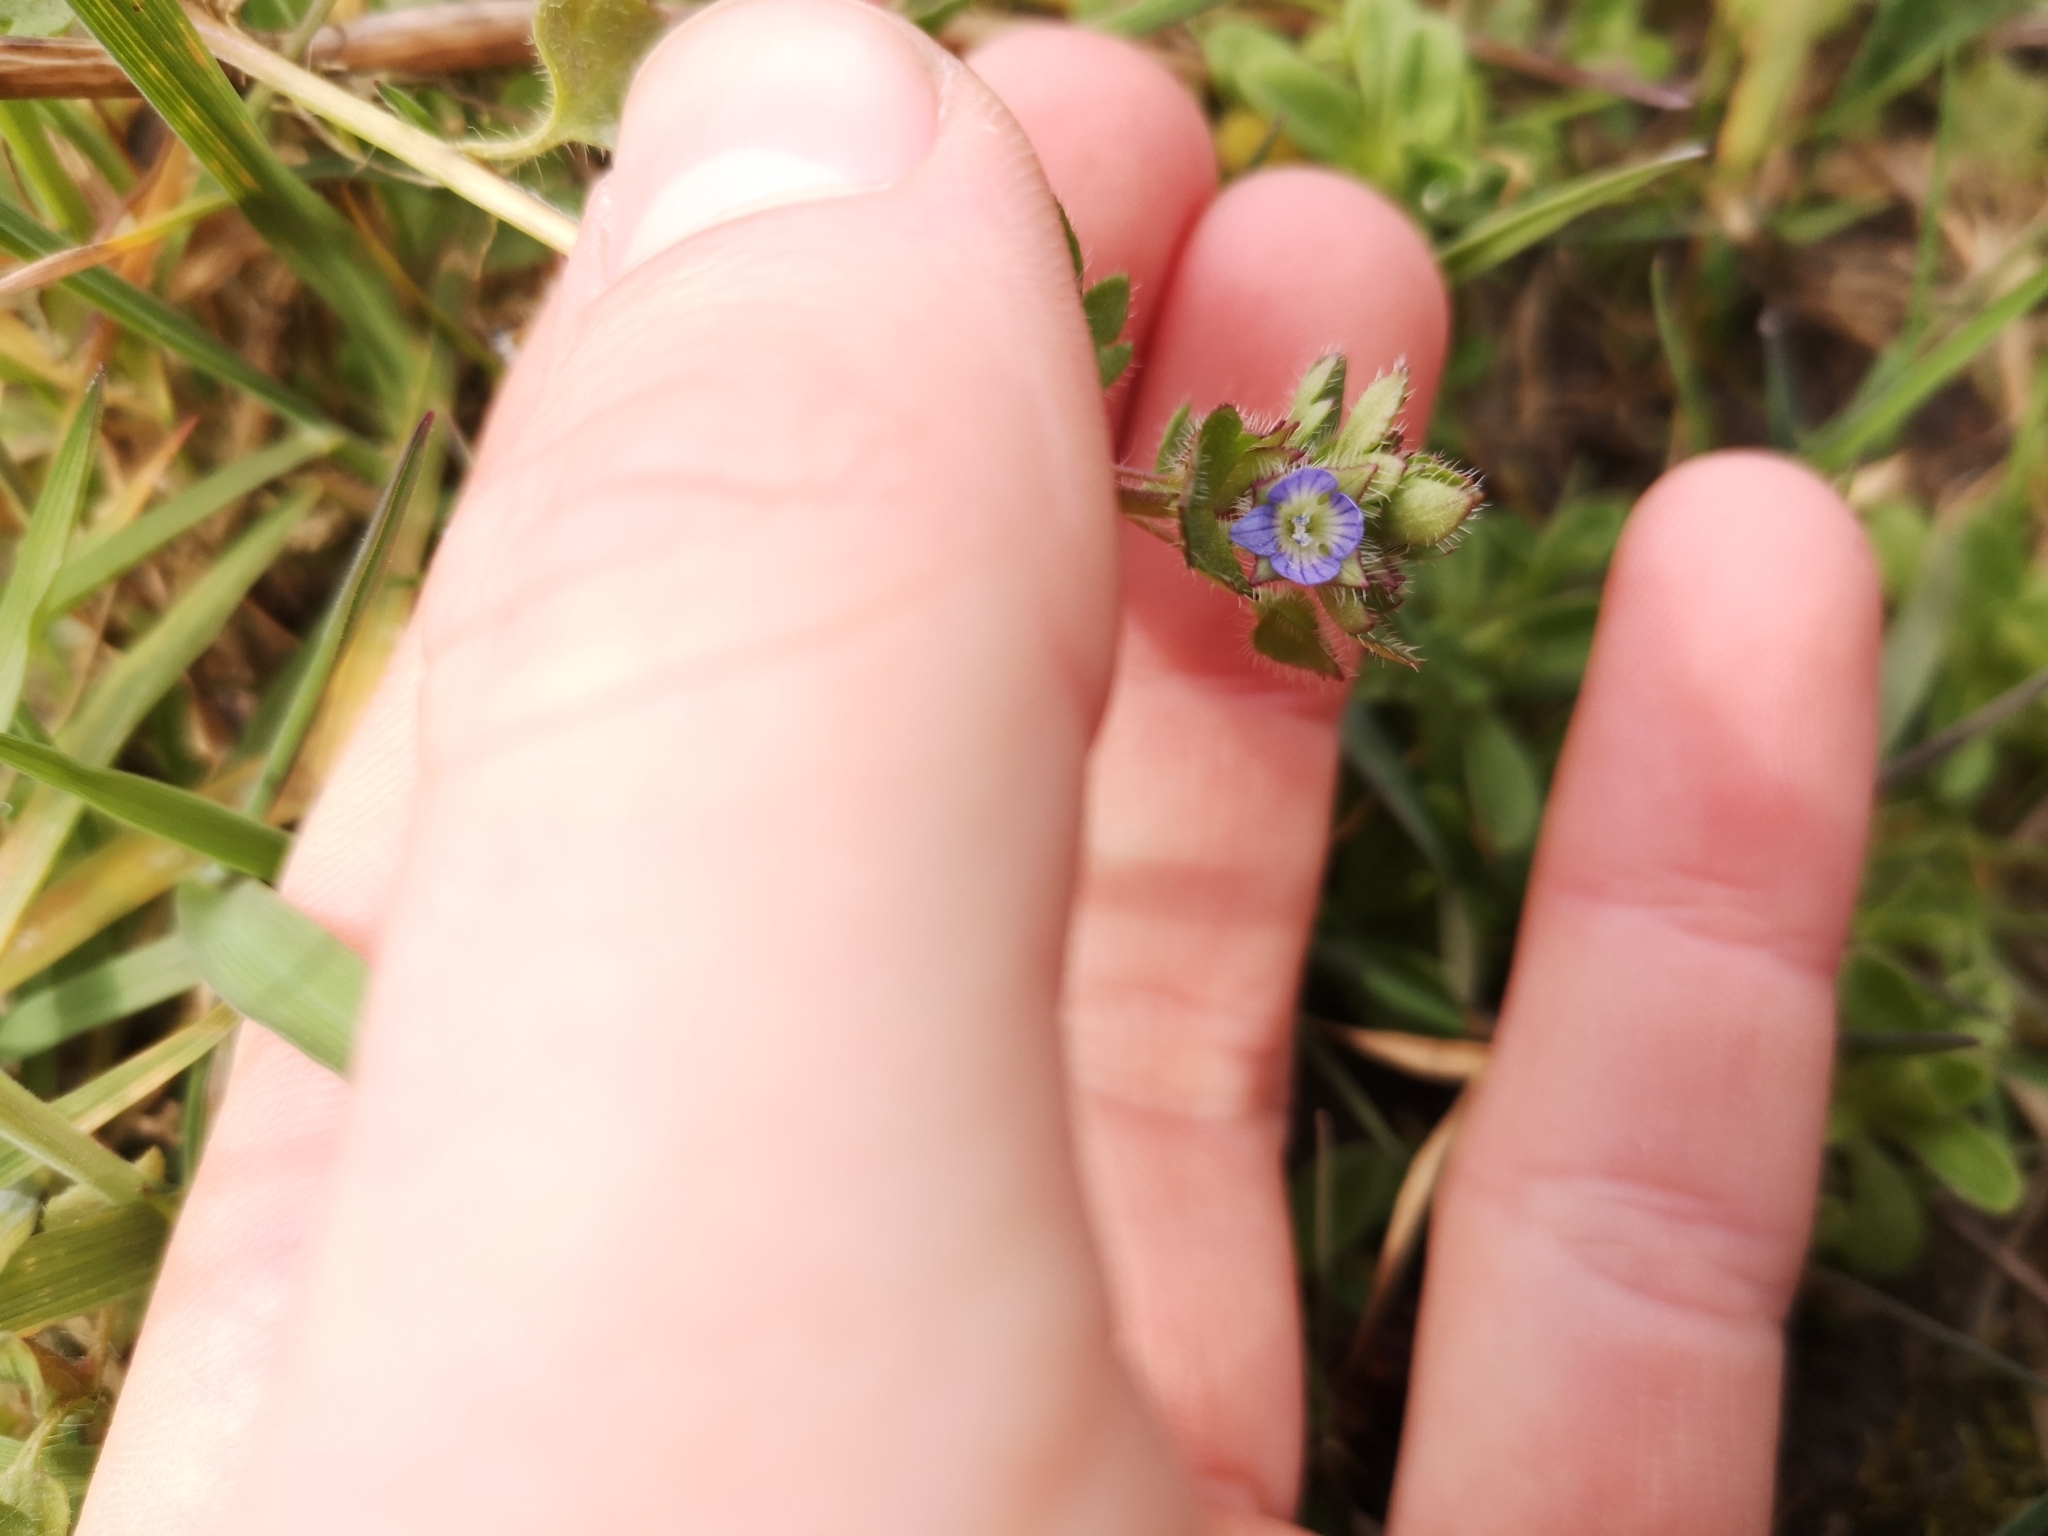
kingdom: Plantae
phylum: Tracheophyta
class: Magnoliopsida
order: Lamiales
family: Plantaginaceae
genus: Veronica
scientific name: Veronica hederifolia
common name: Ivy-leaved speedwell
